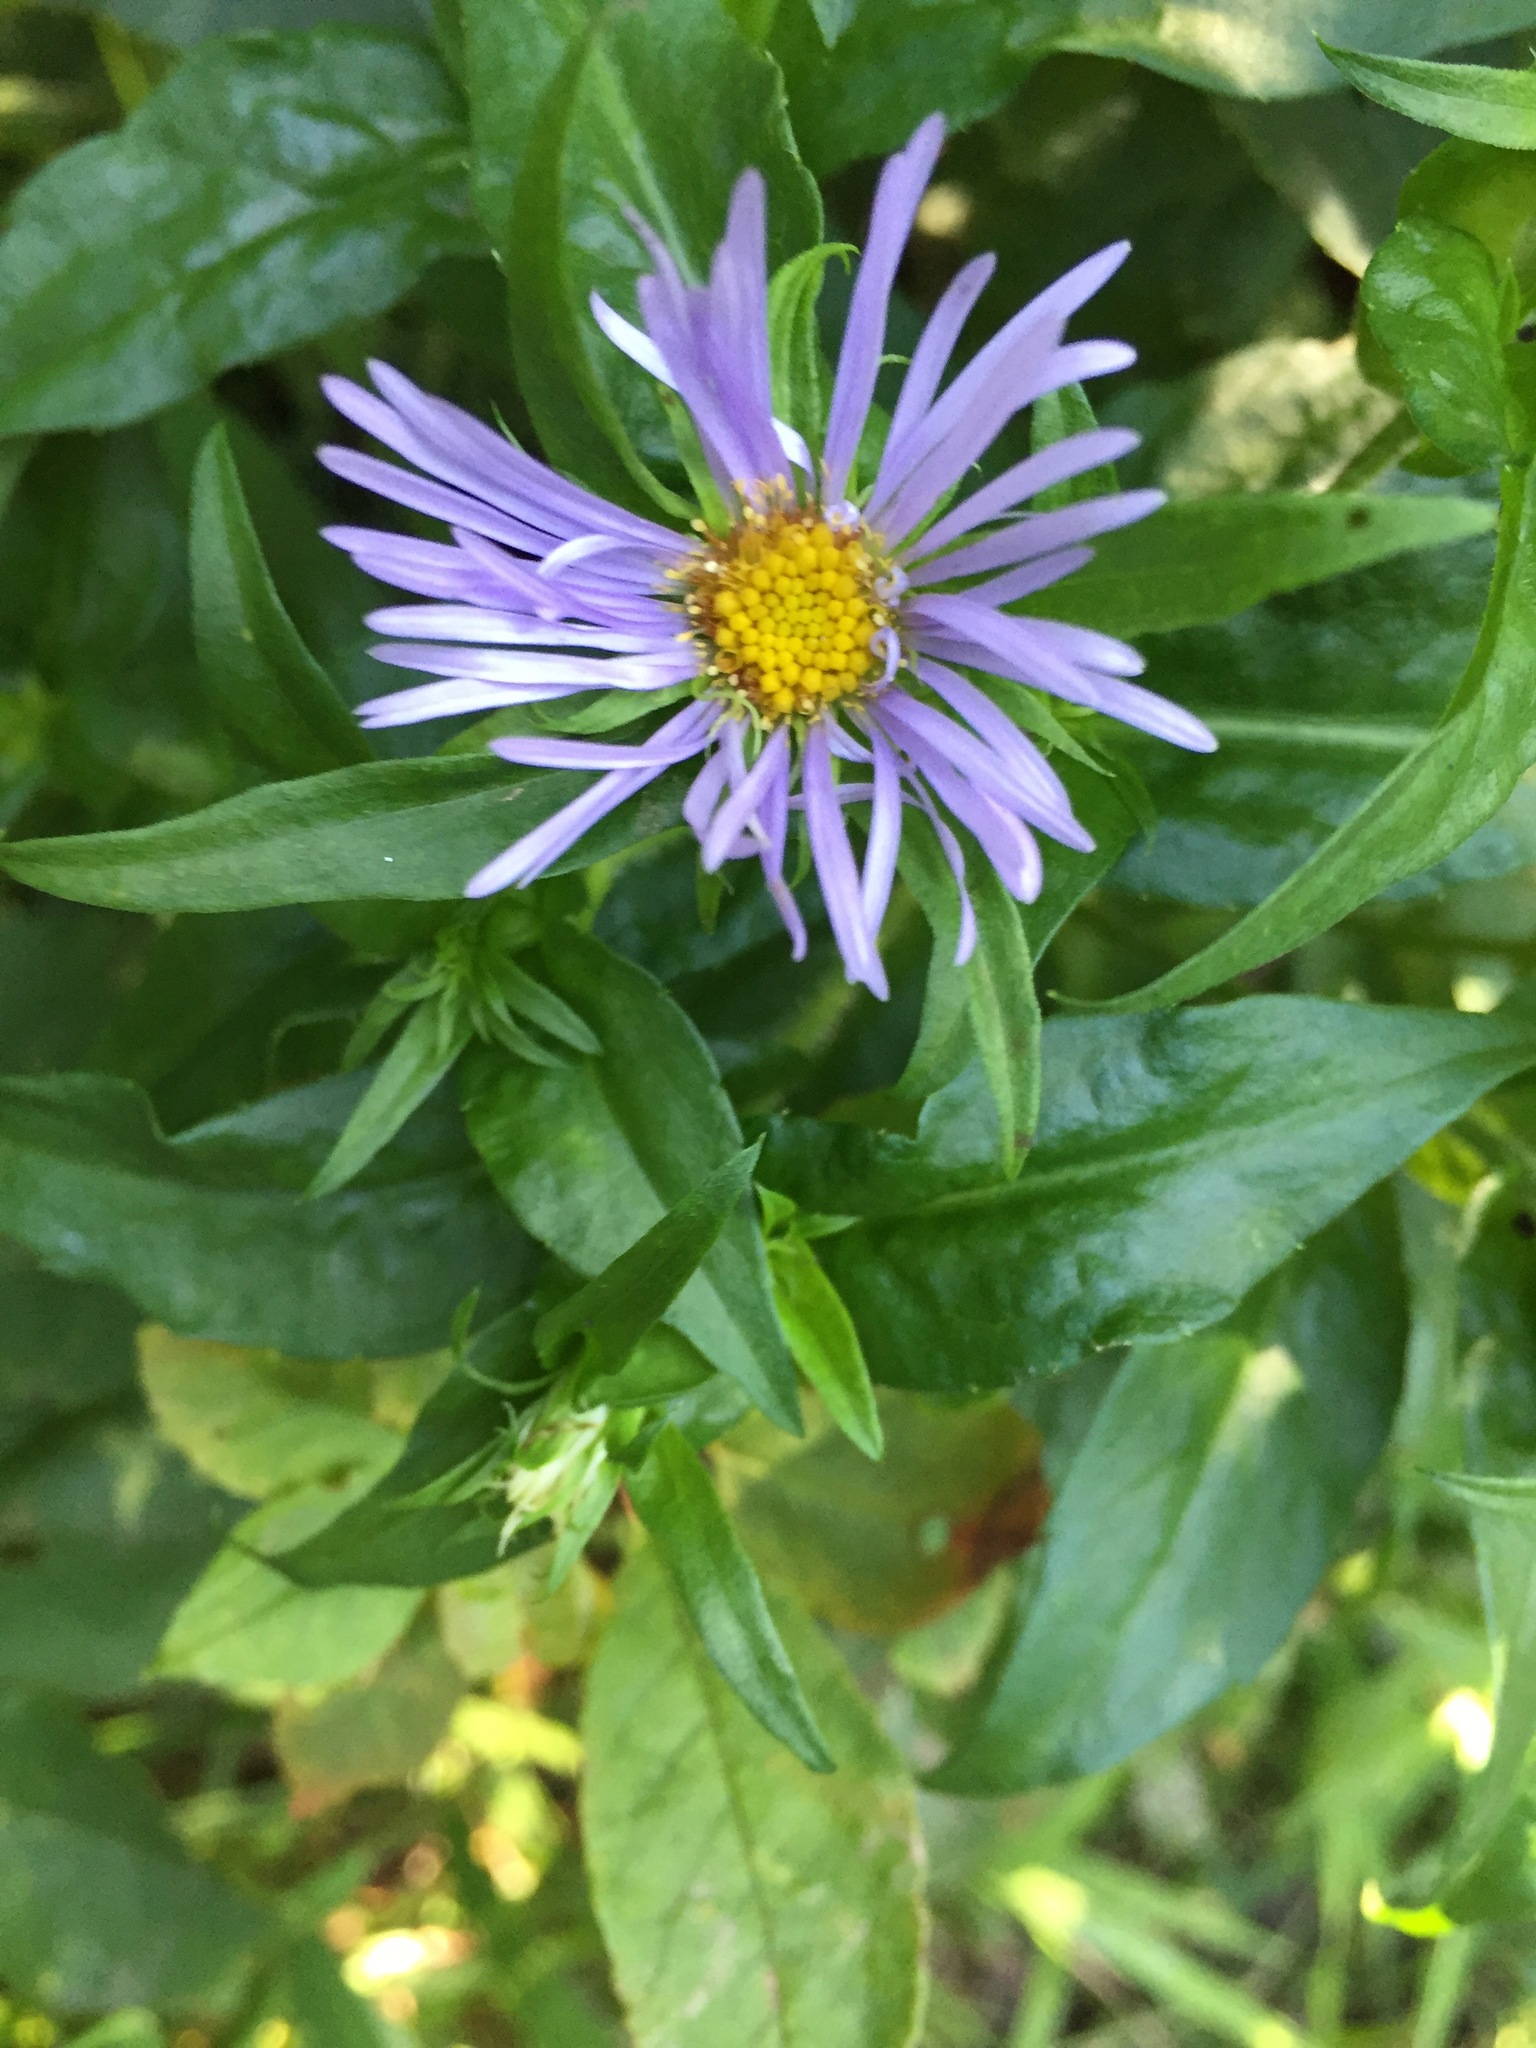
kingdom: Plantae
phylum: Tracheophyta
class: Magnoliopsida
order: Asterales
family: Asteraceae
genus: Symphyotrichum
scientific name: Symphyotrichum puniceum
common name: Bog aster
